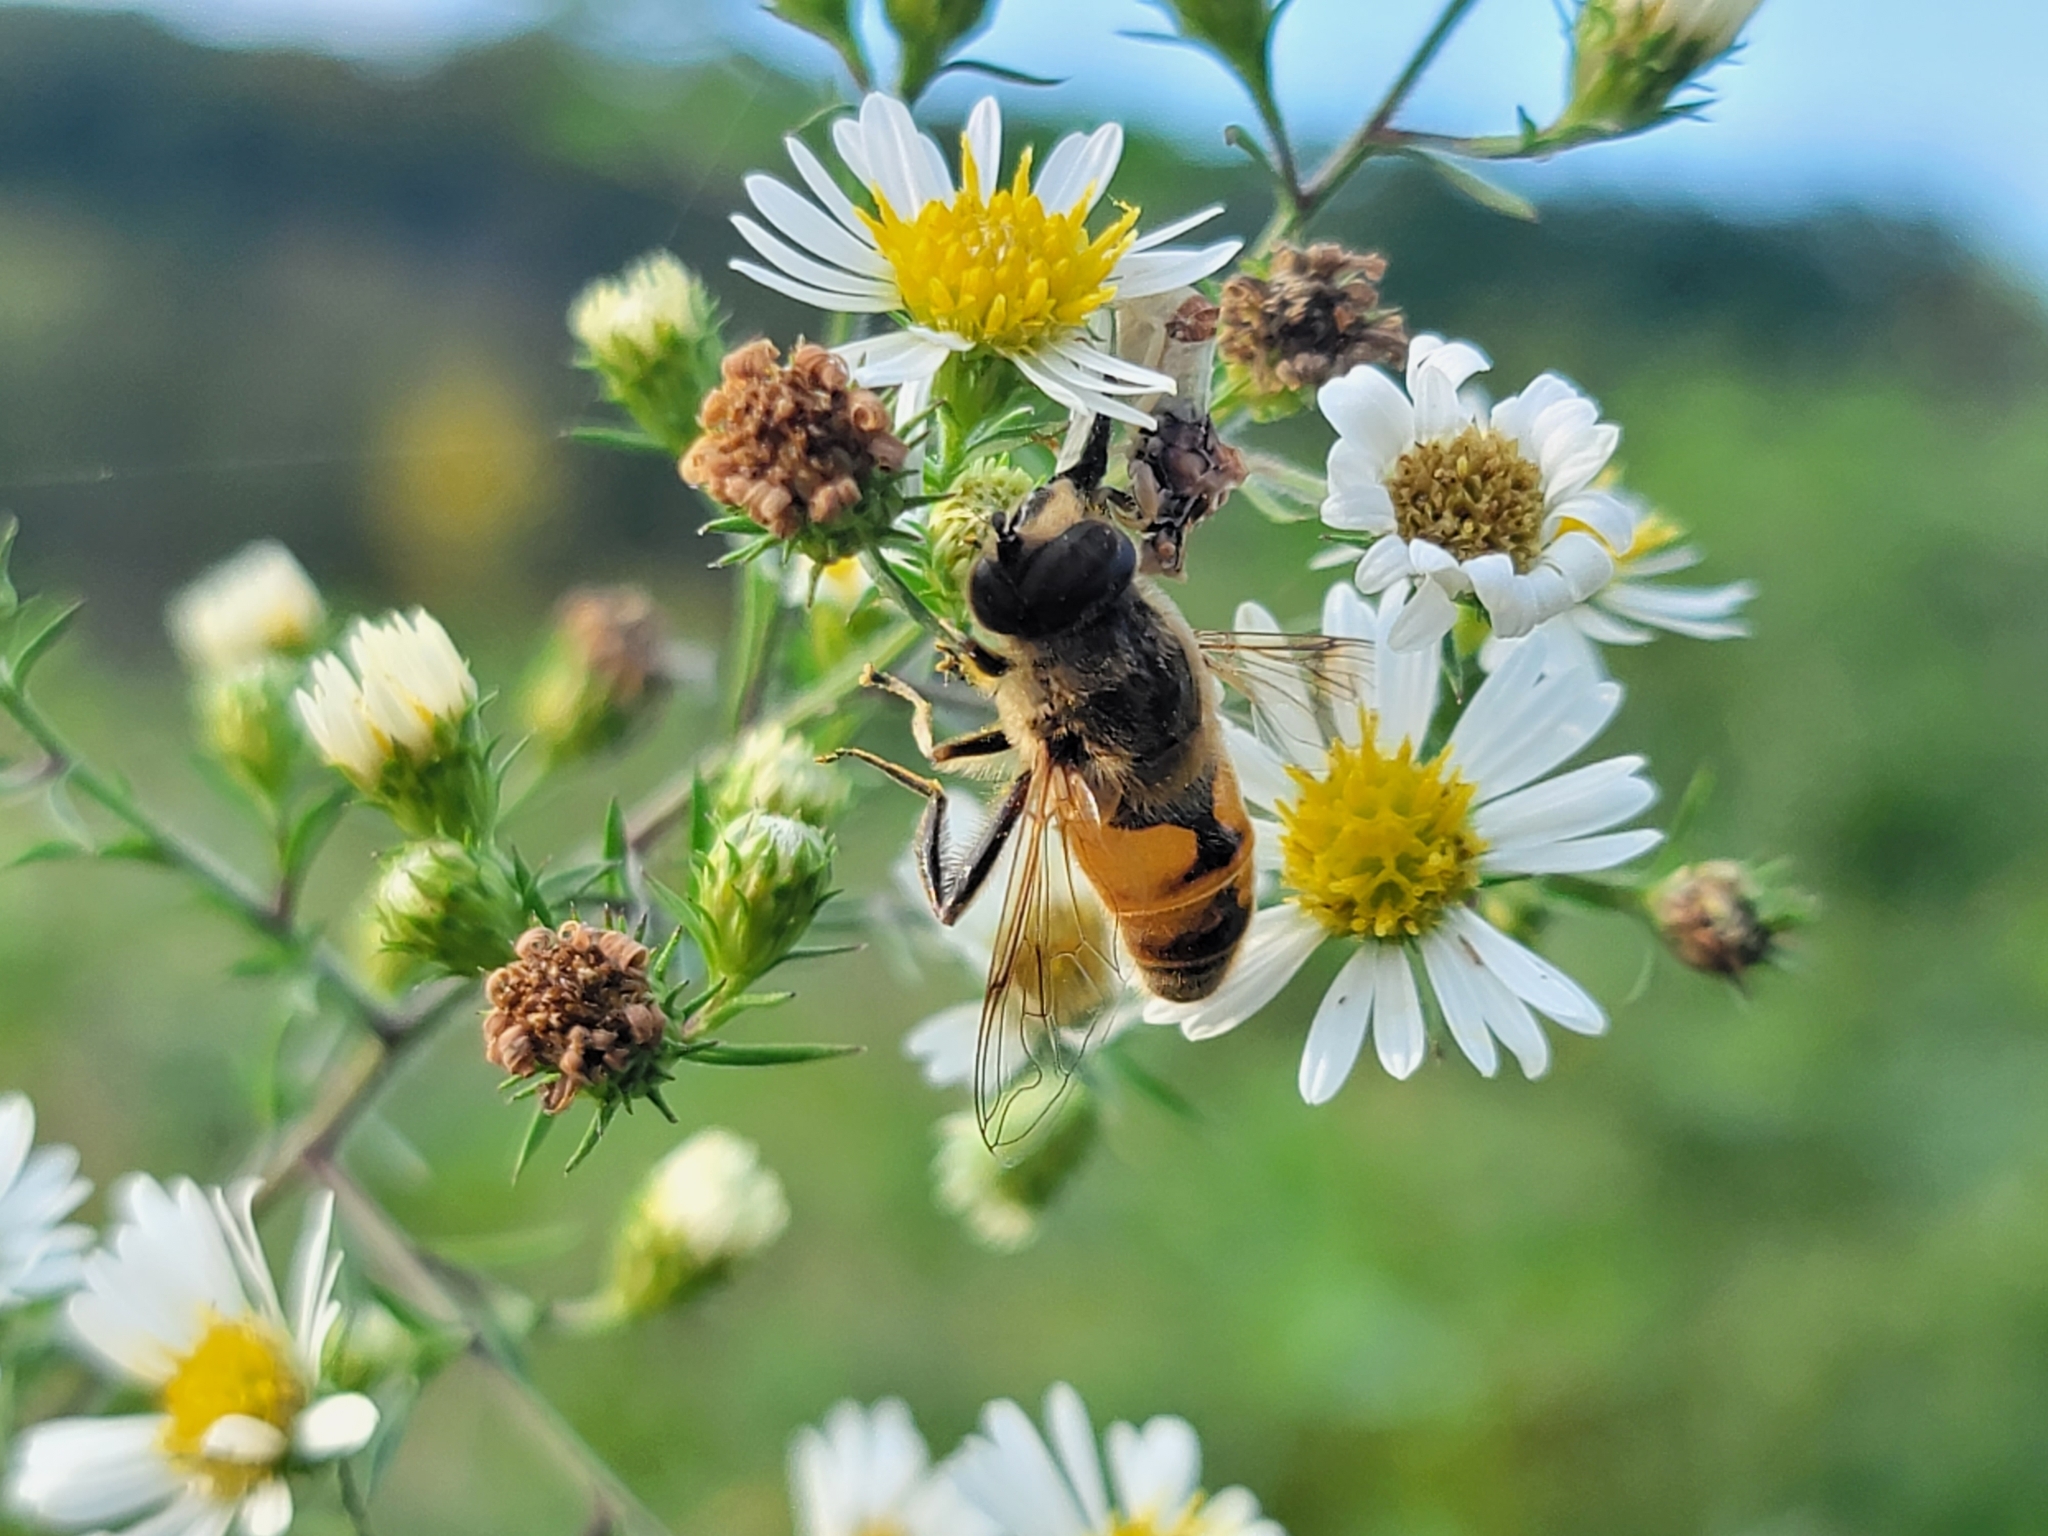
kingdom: Animalia
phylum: Arthropoda
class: Insecta
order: Diptera
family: Syrphidae
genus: Eristalis
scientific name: Eristalis tenax
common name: Drone fly
